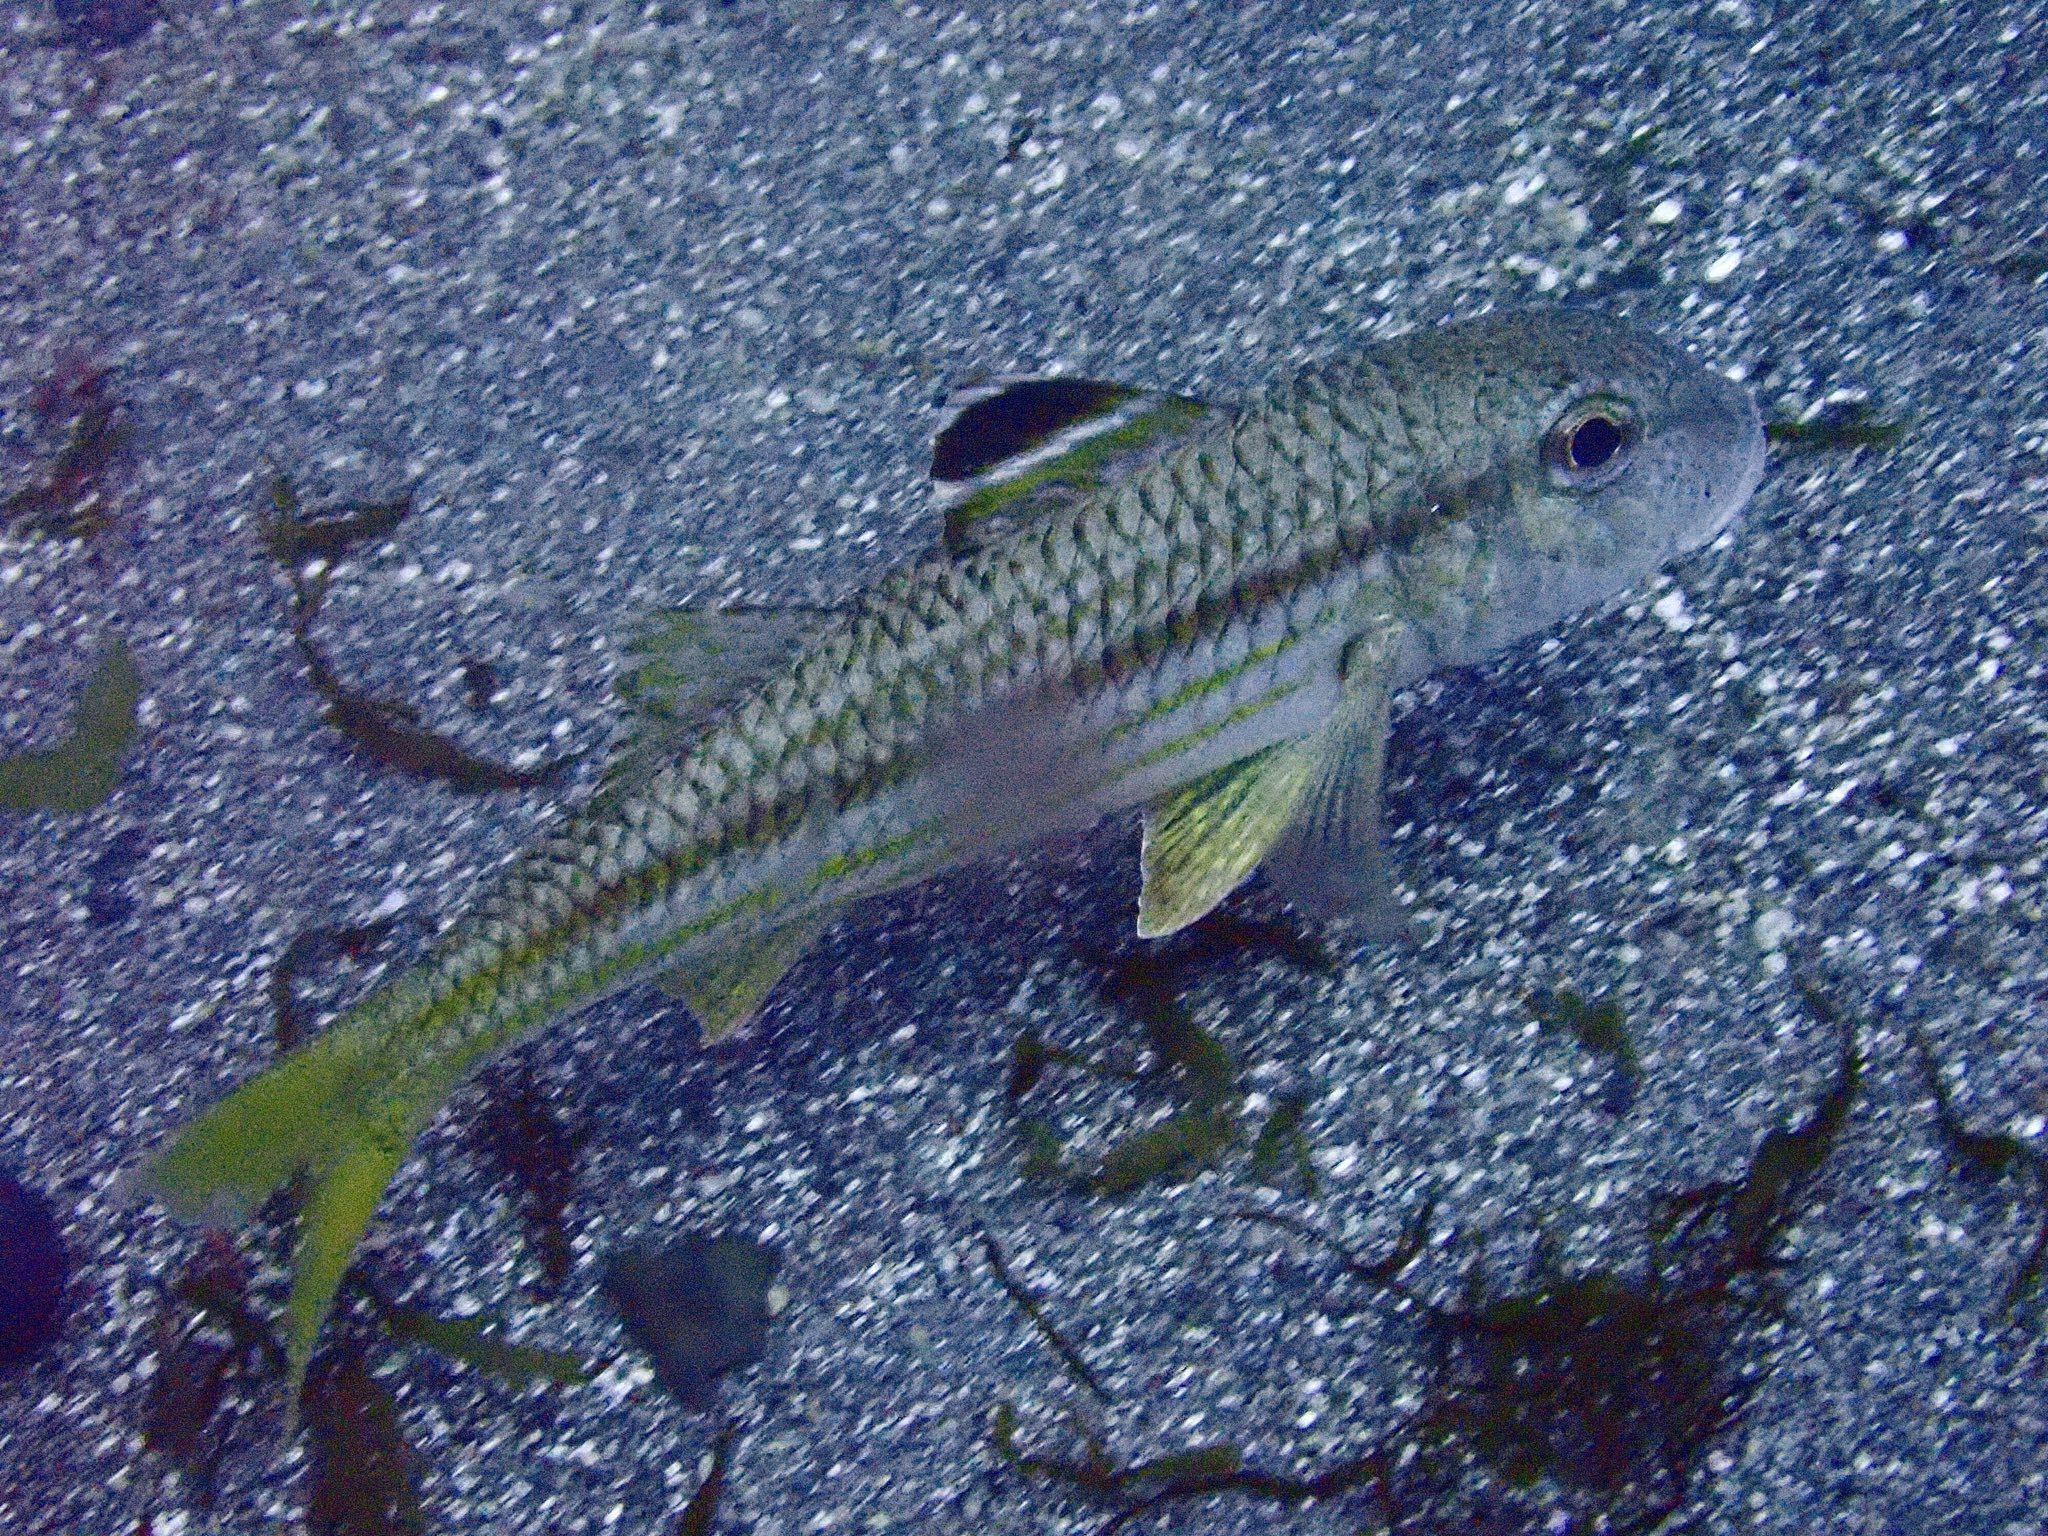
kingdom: Animalia
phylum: Chordata
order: Perciformes
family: Mullidae
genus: Mullus
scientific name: Mullus surmuletus
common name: Red mullet
